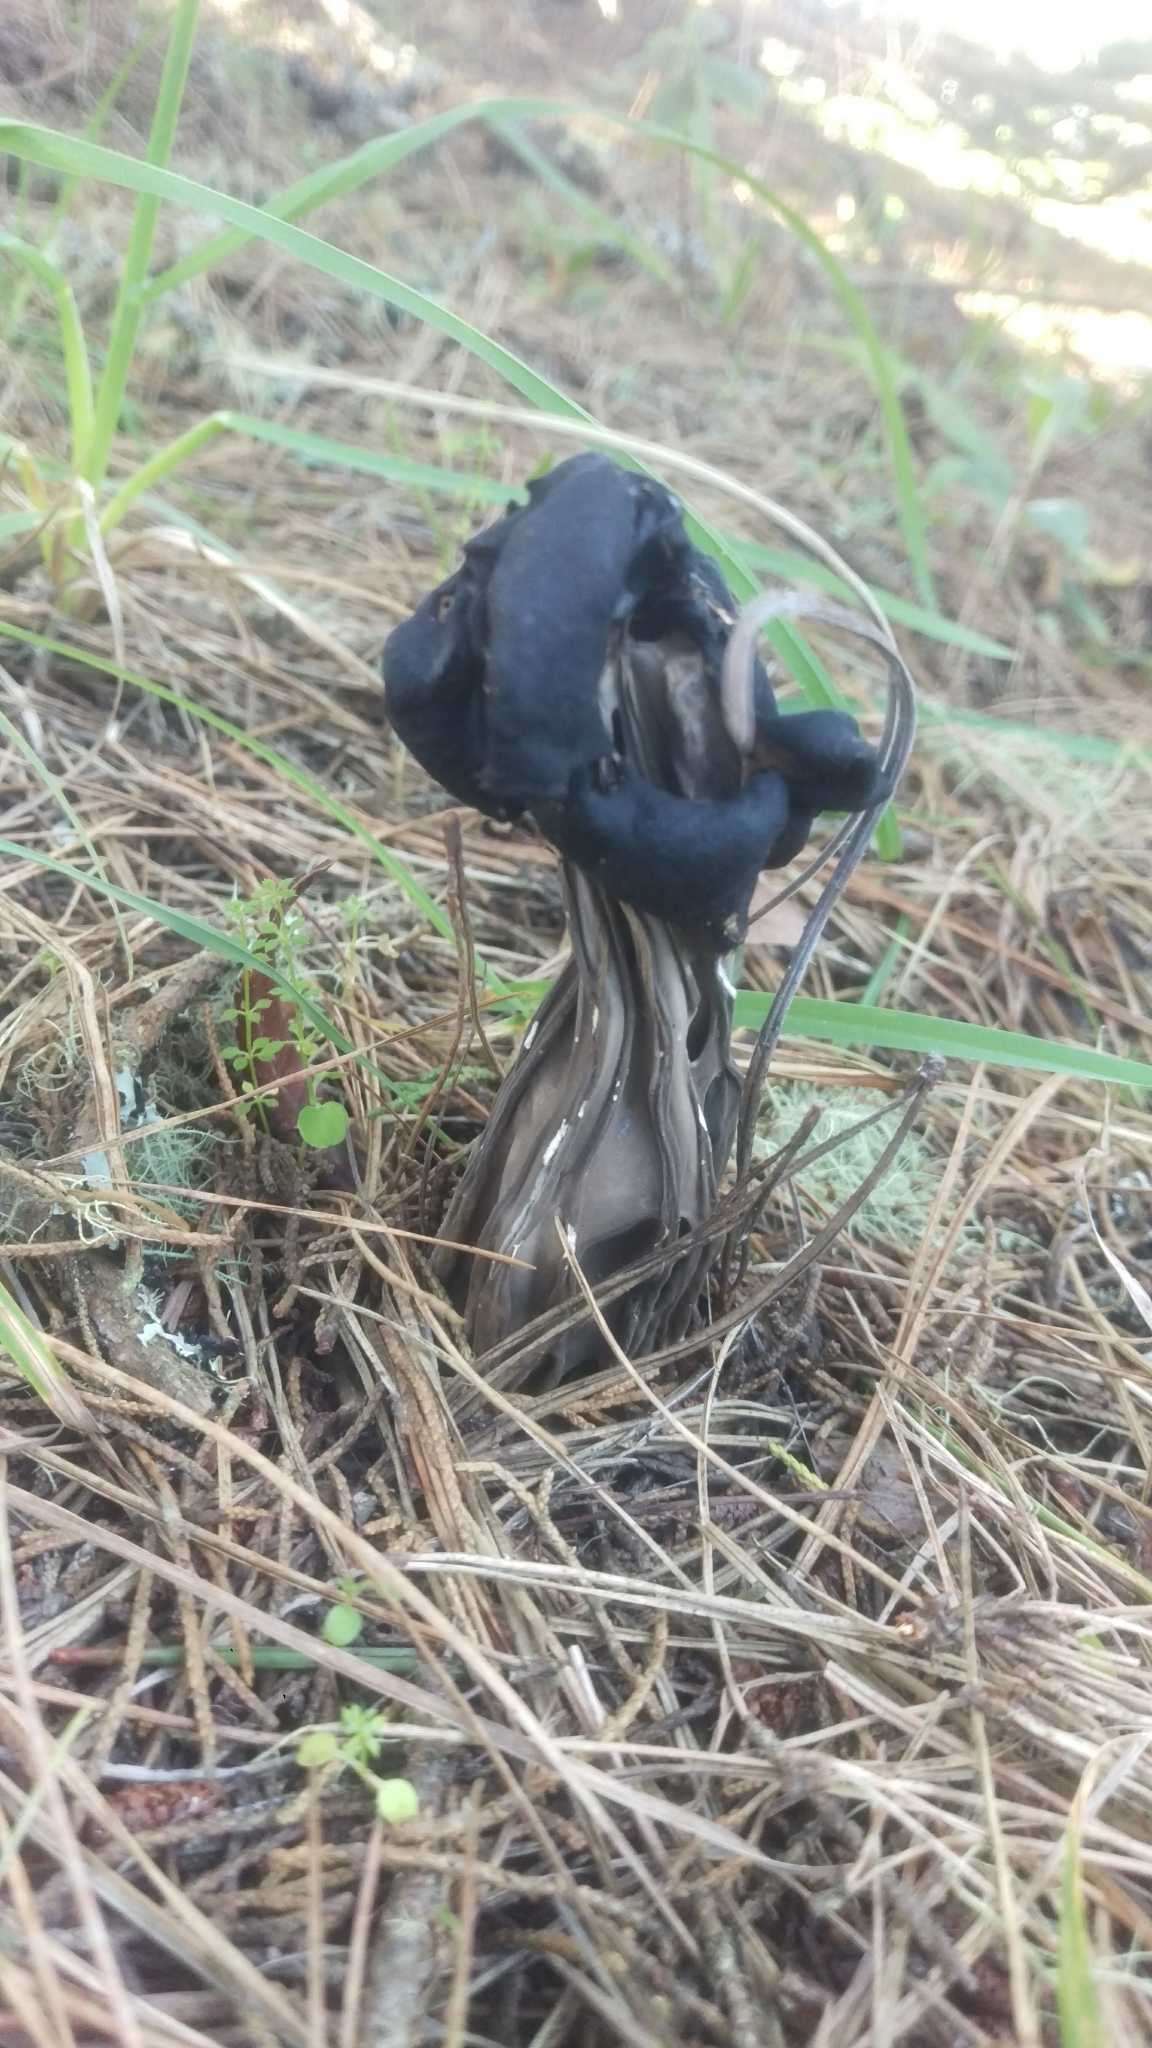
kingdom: Fungi
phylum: Ascomycota
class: Pezizomycetes
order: Pezizales
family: Helvellaceae
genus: Helvella
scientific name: Helvella vespertina
